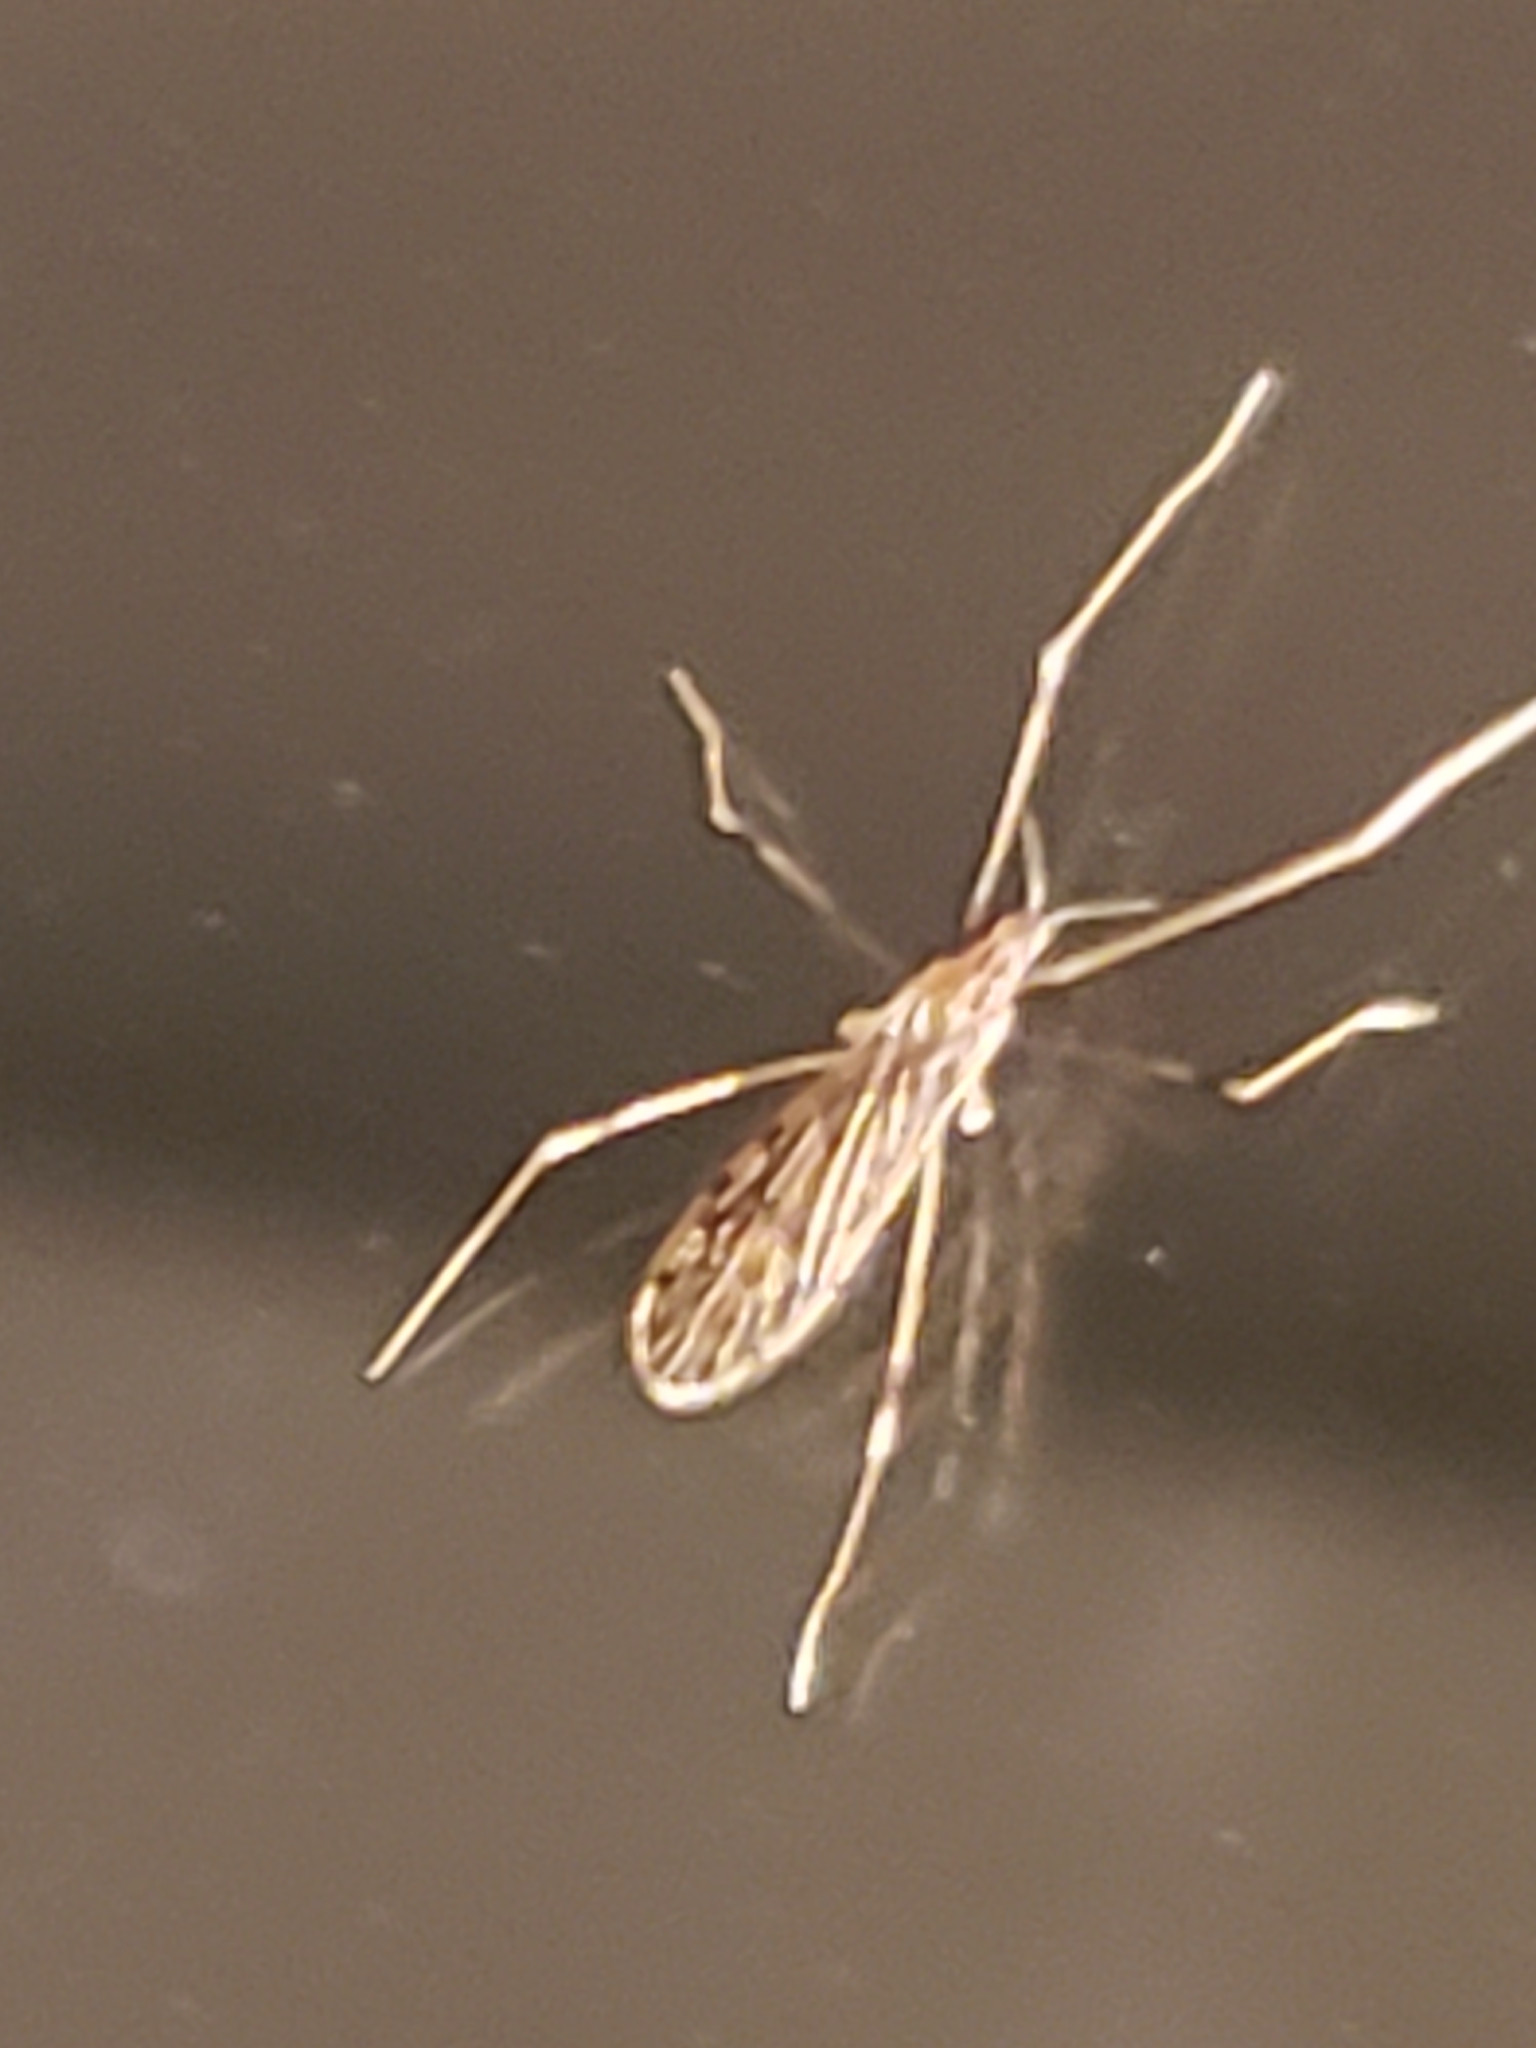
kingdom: Animalia
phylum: Arthropoda
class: Insecta
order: Diptera
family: Limoniidae
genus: Erioptera
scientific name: Erioptera parva
